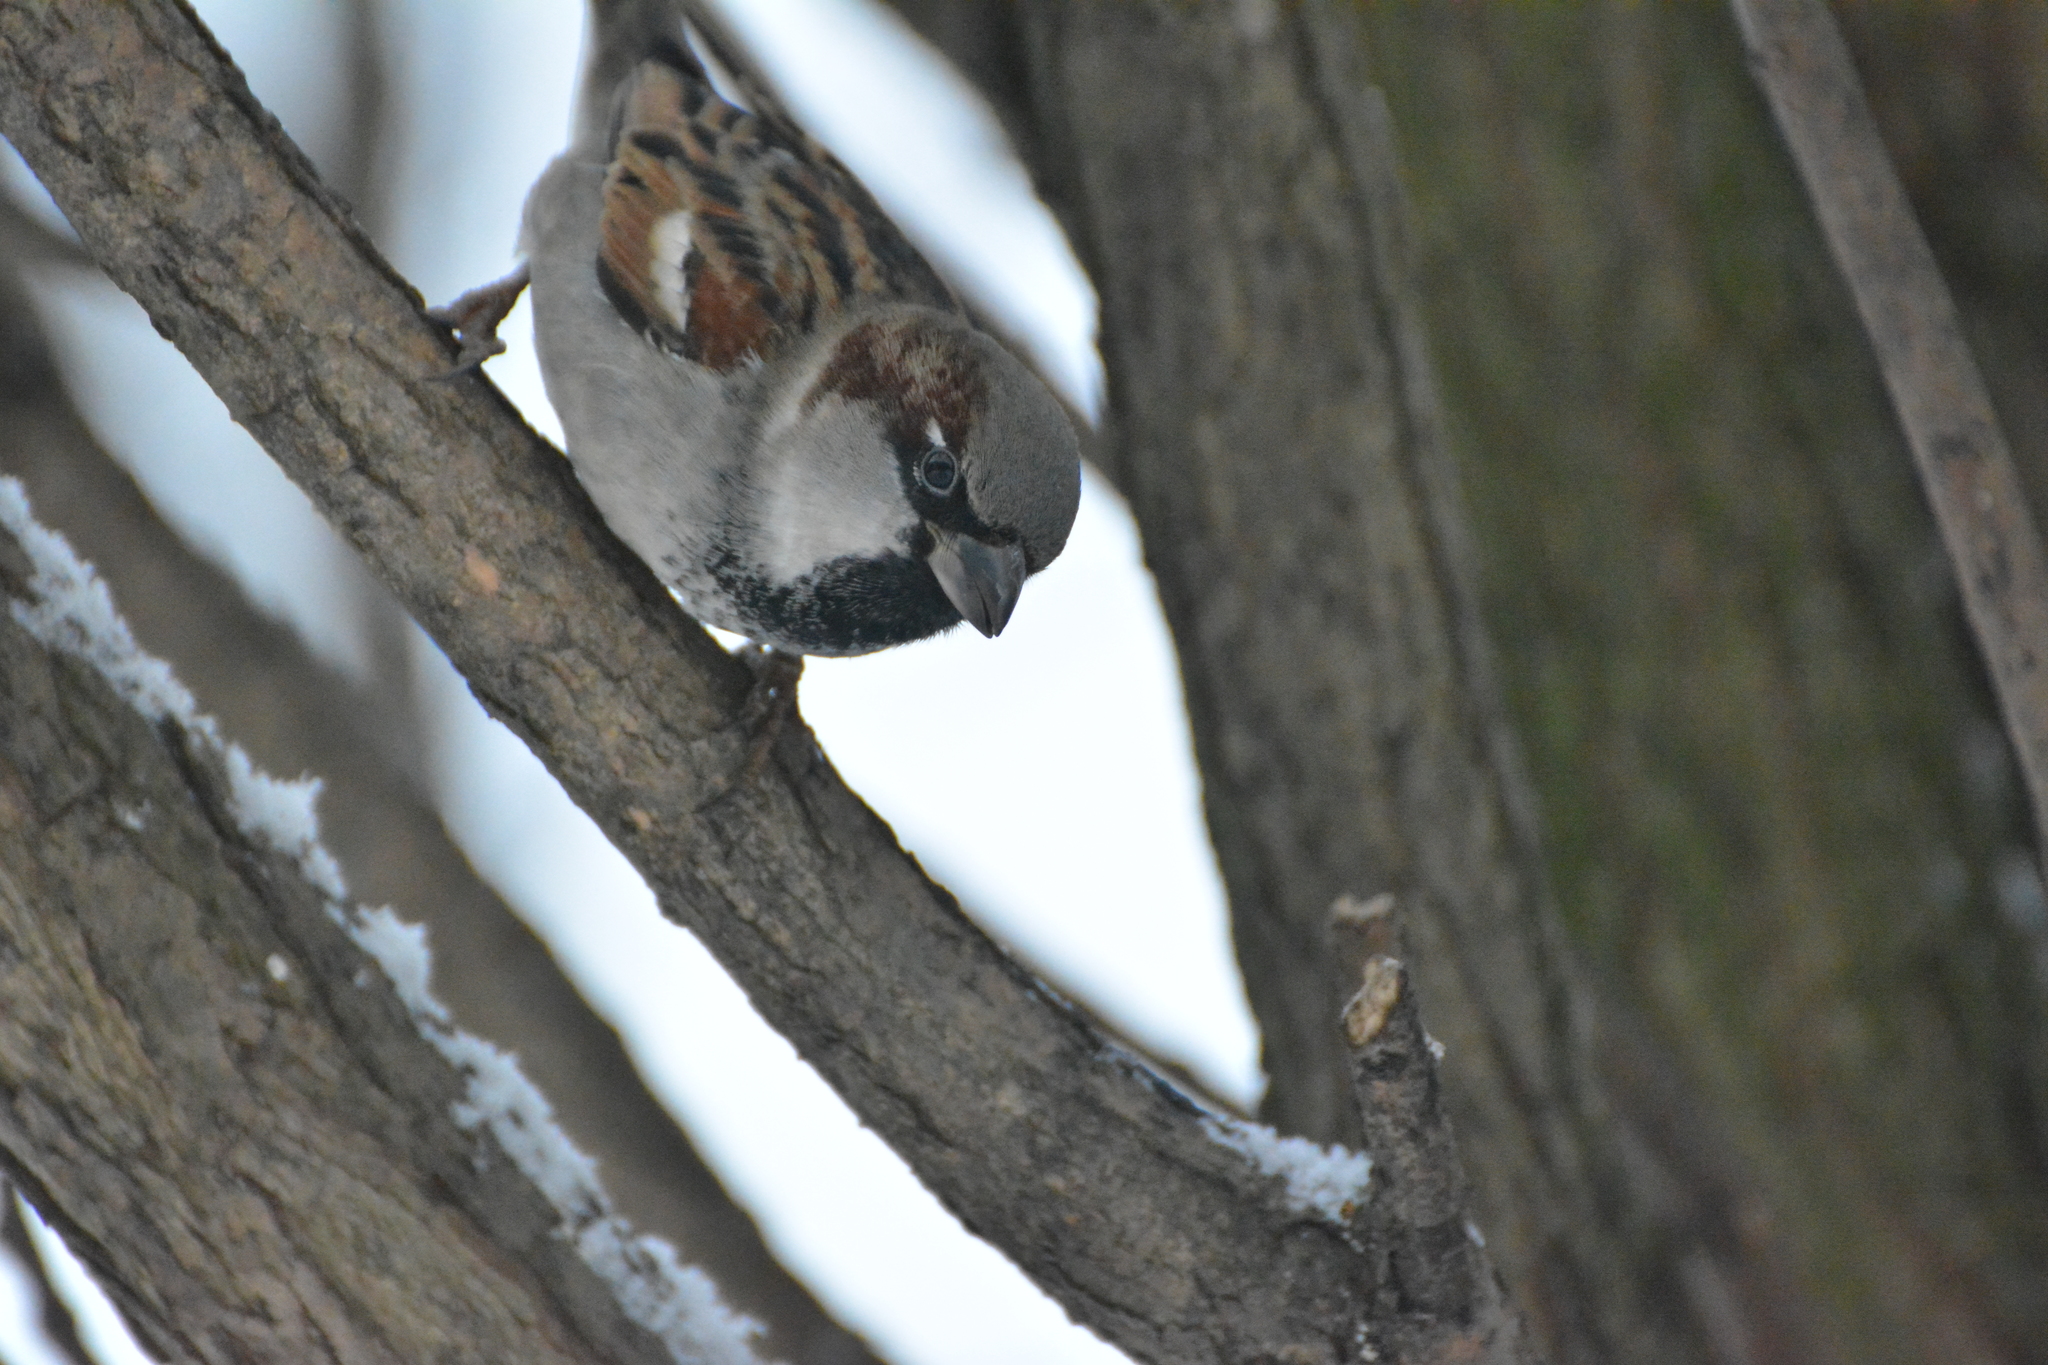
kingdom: Animalia
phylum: Chordata
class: Aves
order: Passeriformes
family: Passeridae
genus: Passer
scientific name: Passer domesticus
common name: House sparrow
